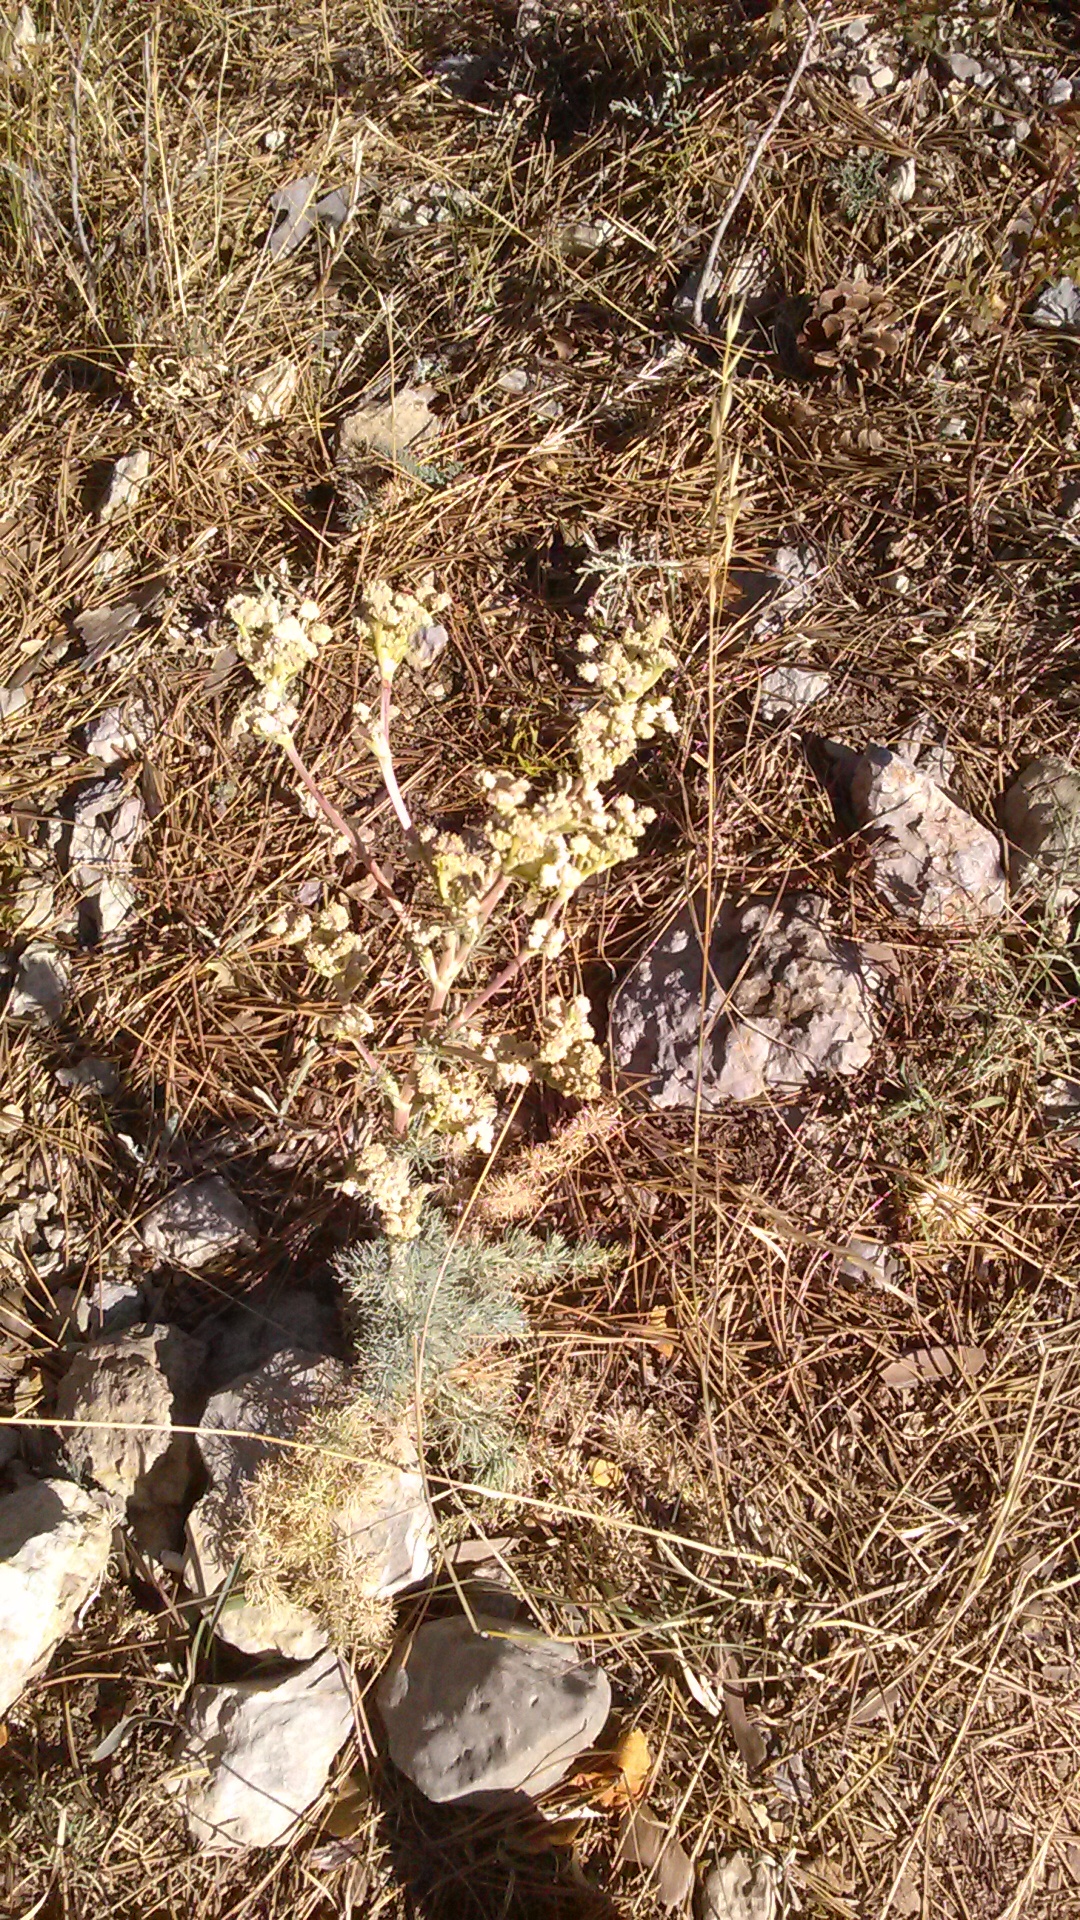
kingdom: Plantae
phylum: Tracheophyta
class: Magnoliopsida
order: Apiales
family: Apiaceae
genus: Seseli
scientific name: Seseli dichotomum
